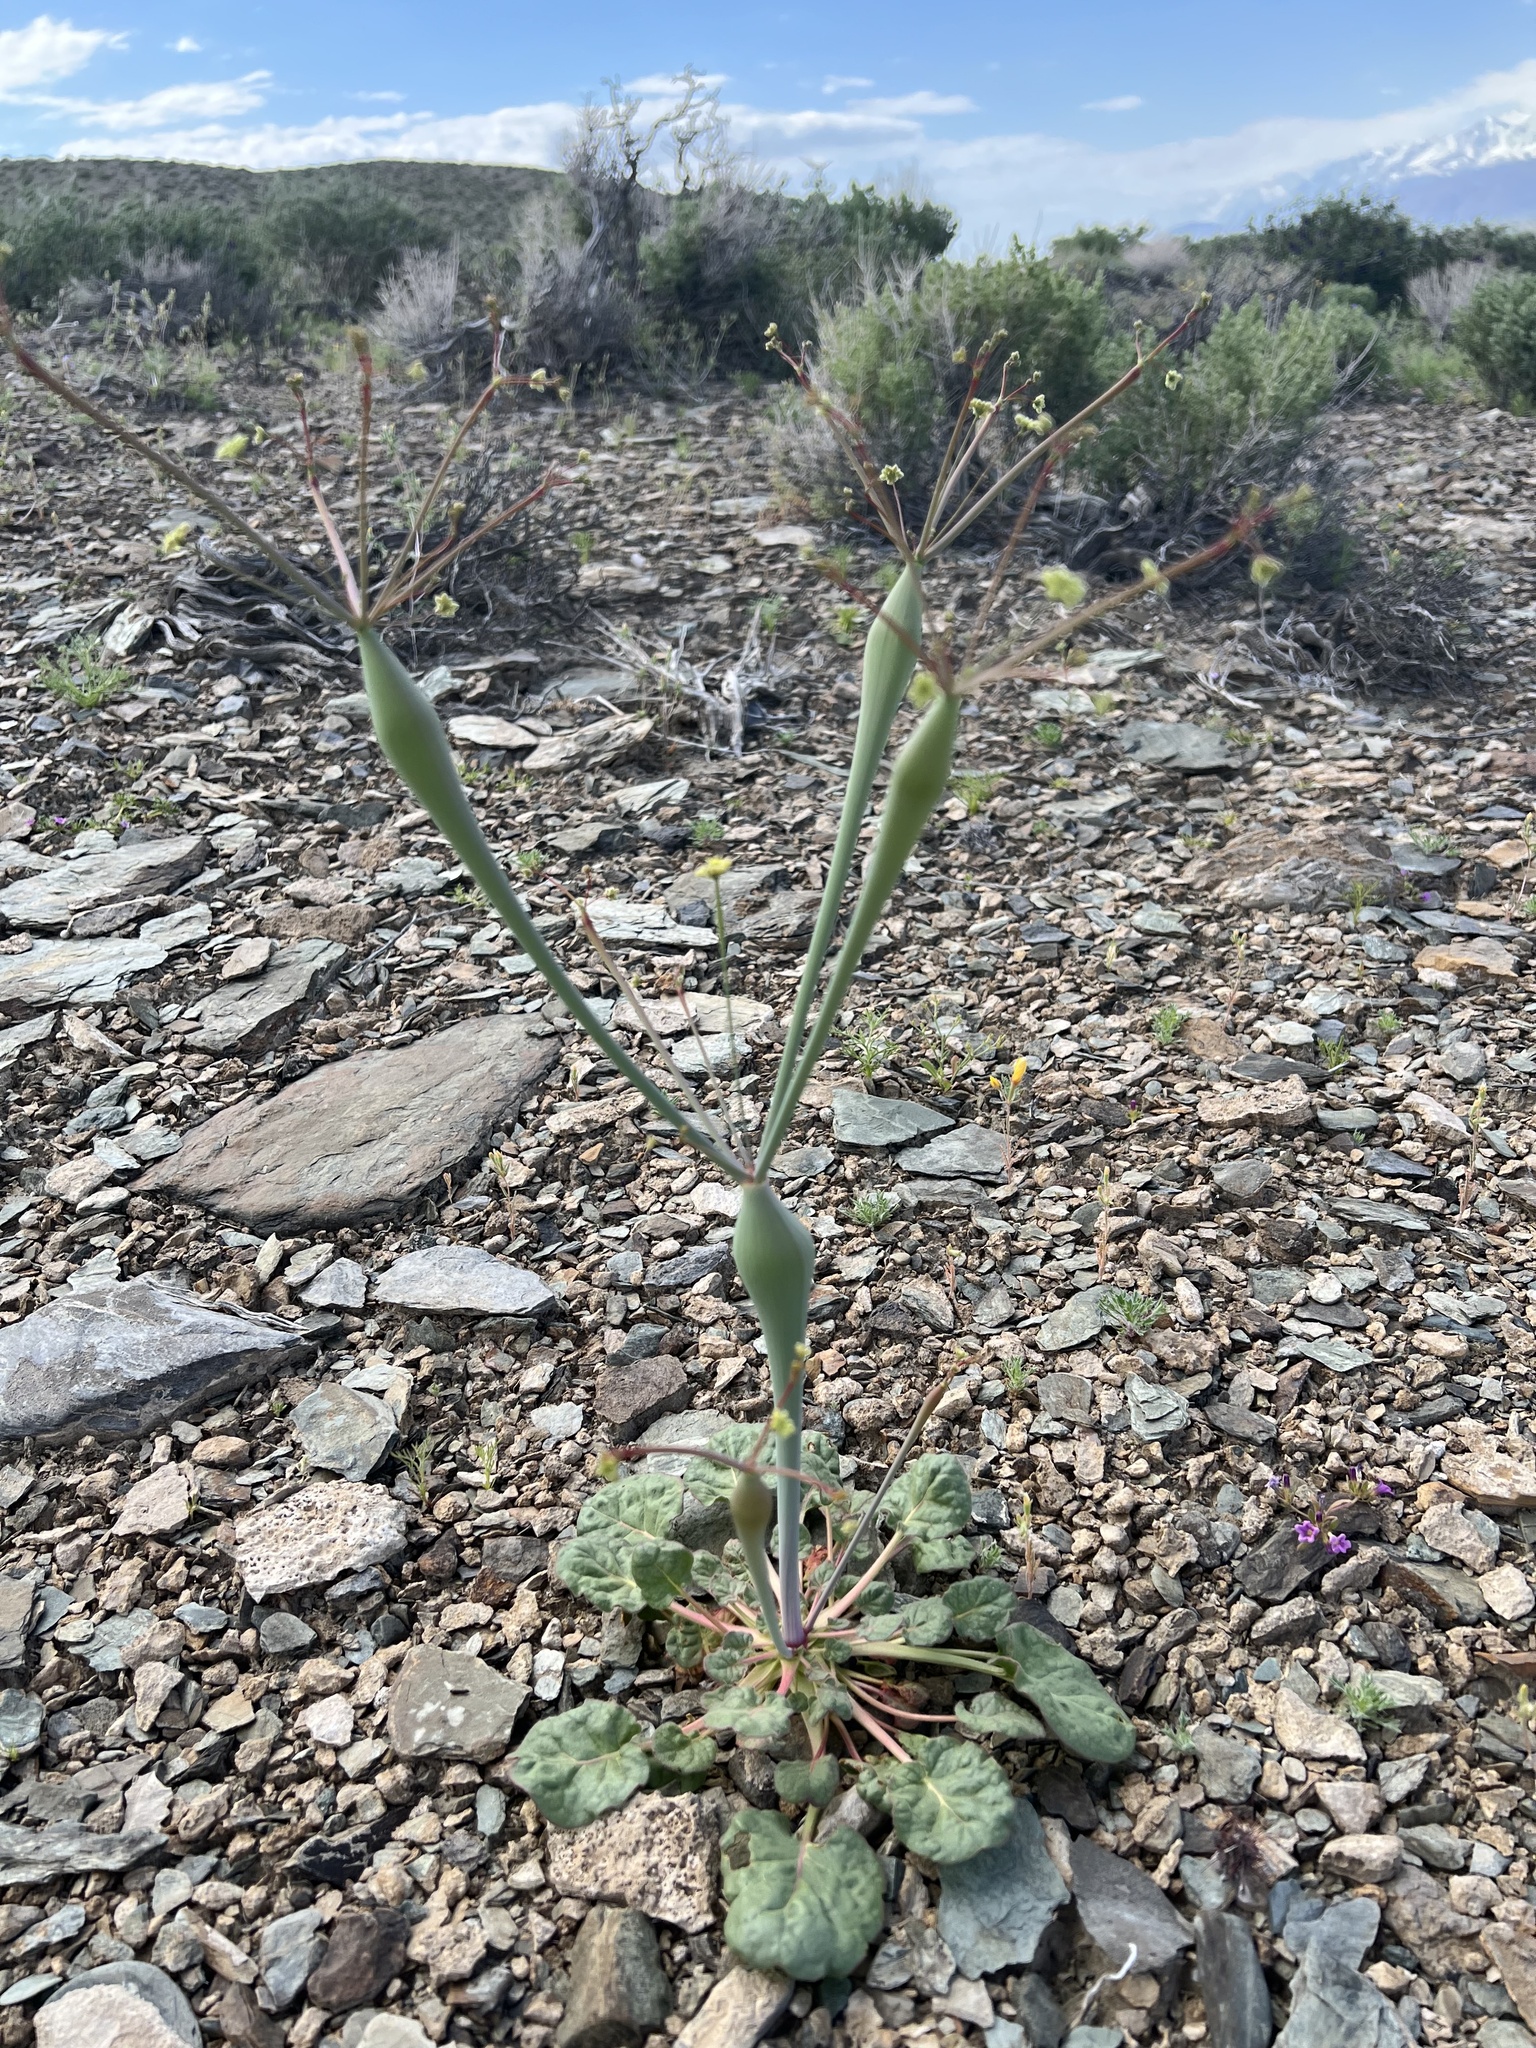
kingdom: Plantae
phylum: Tracheophyta
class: Magnoliopsida
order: Caryophyllales
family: Polygonaceae
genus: Eriogonum
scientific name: Eriogonum inflatum
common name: Desert trumpet
